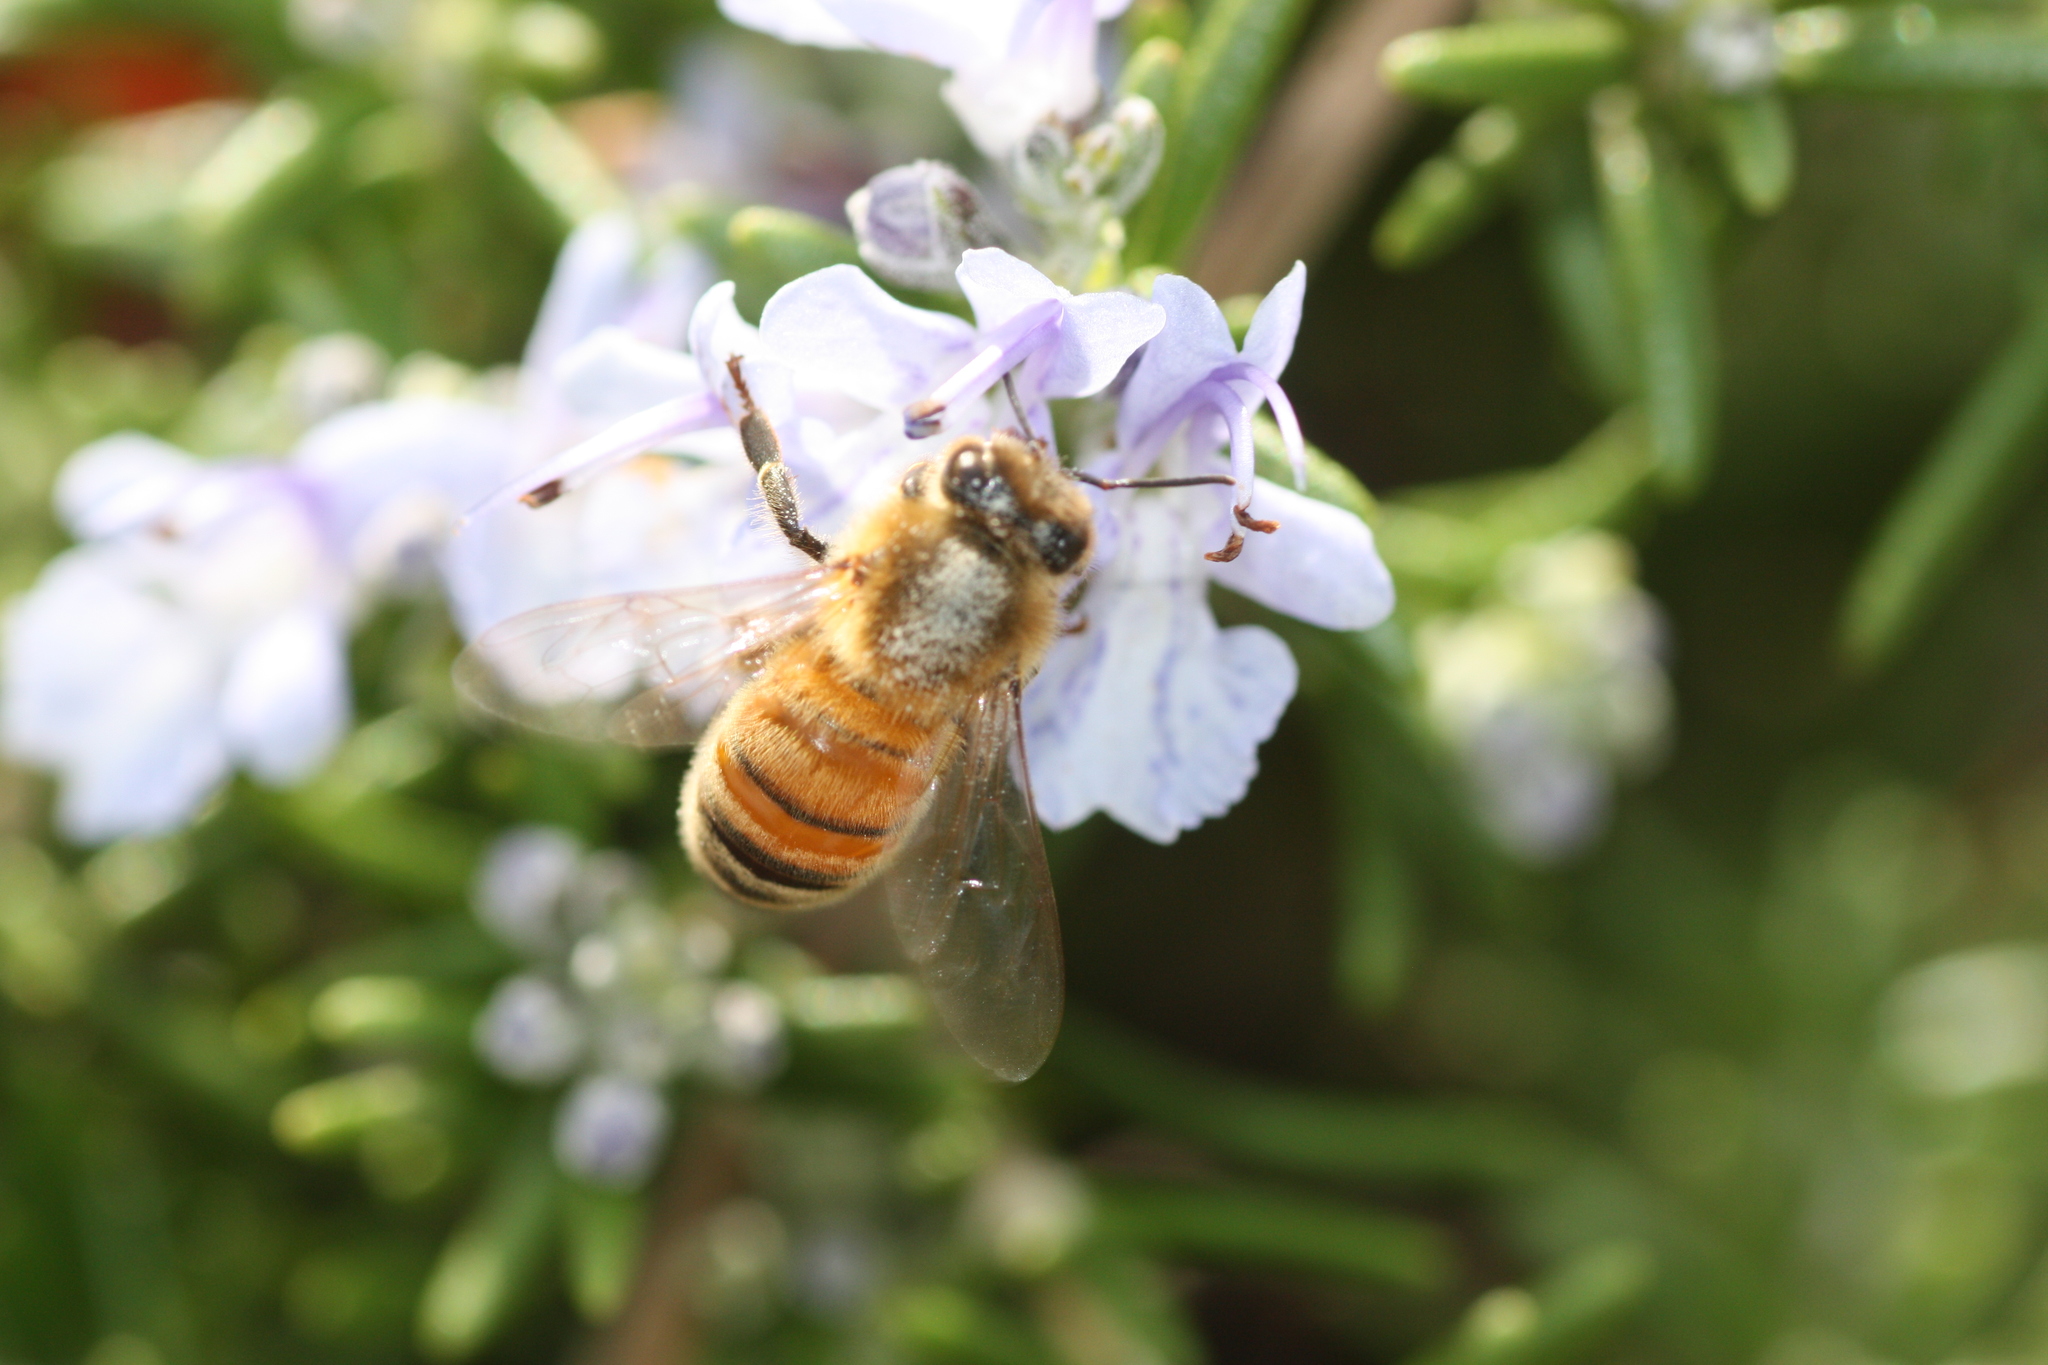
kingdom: Animalia
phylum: Arthropoda
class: Insecta
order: Hymenoptera
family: Apidae
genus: Apis
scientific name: Apis mellifera
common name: Honey bee
